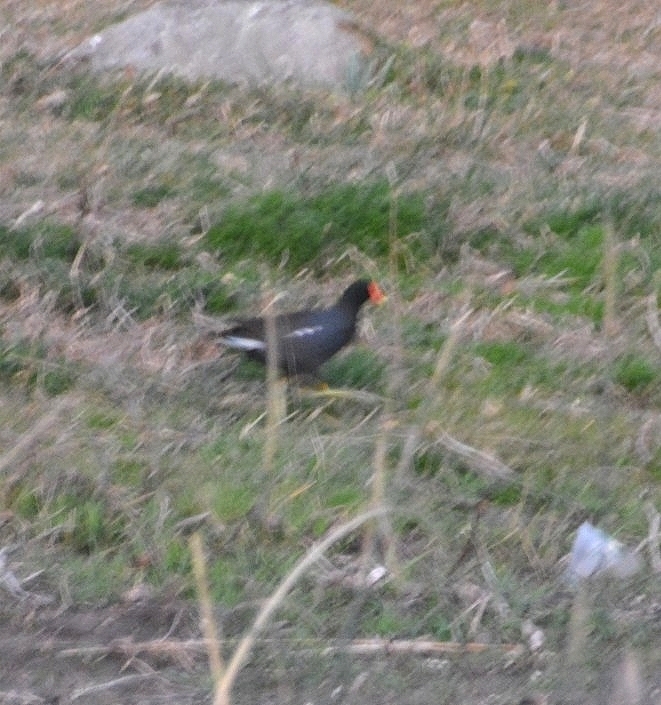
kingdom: Animalia
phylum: Chordata
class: Aves
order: Gruiformes
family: Rallidae
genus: Gallinula
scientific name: Gallinula chloropus
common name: Common moorhen
